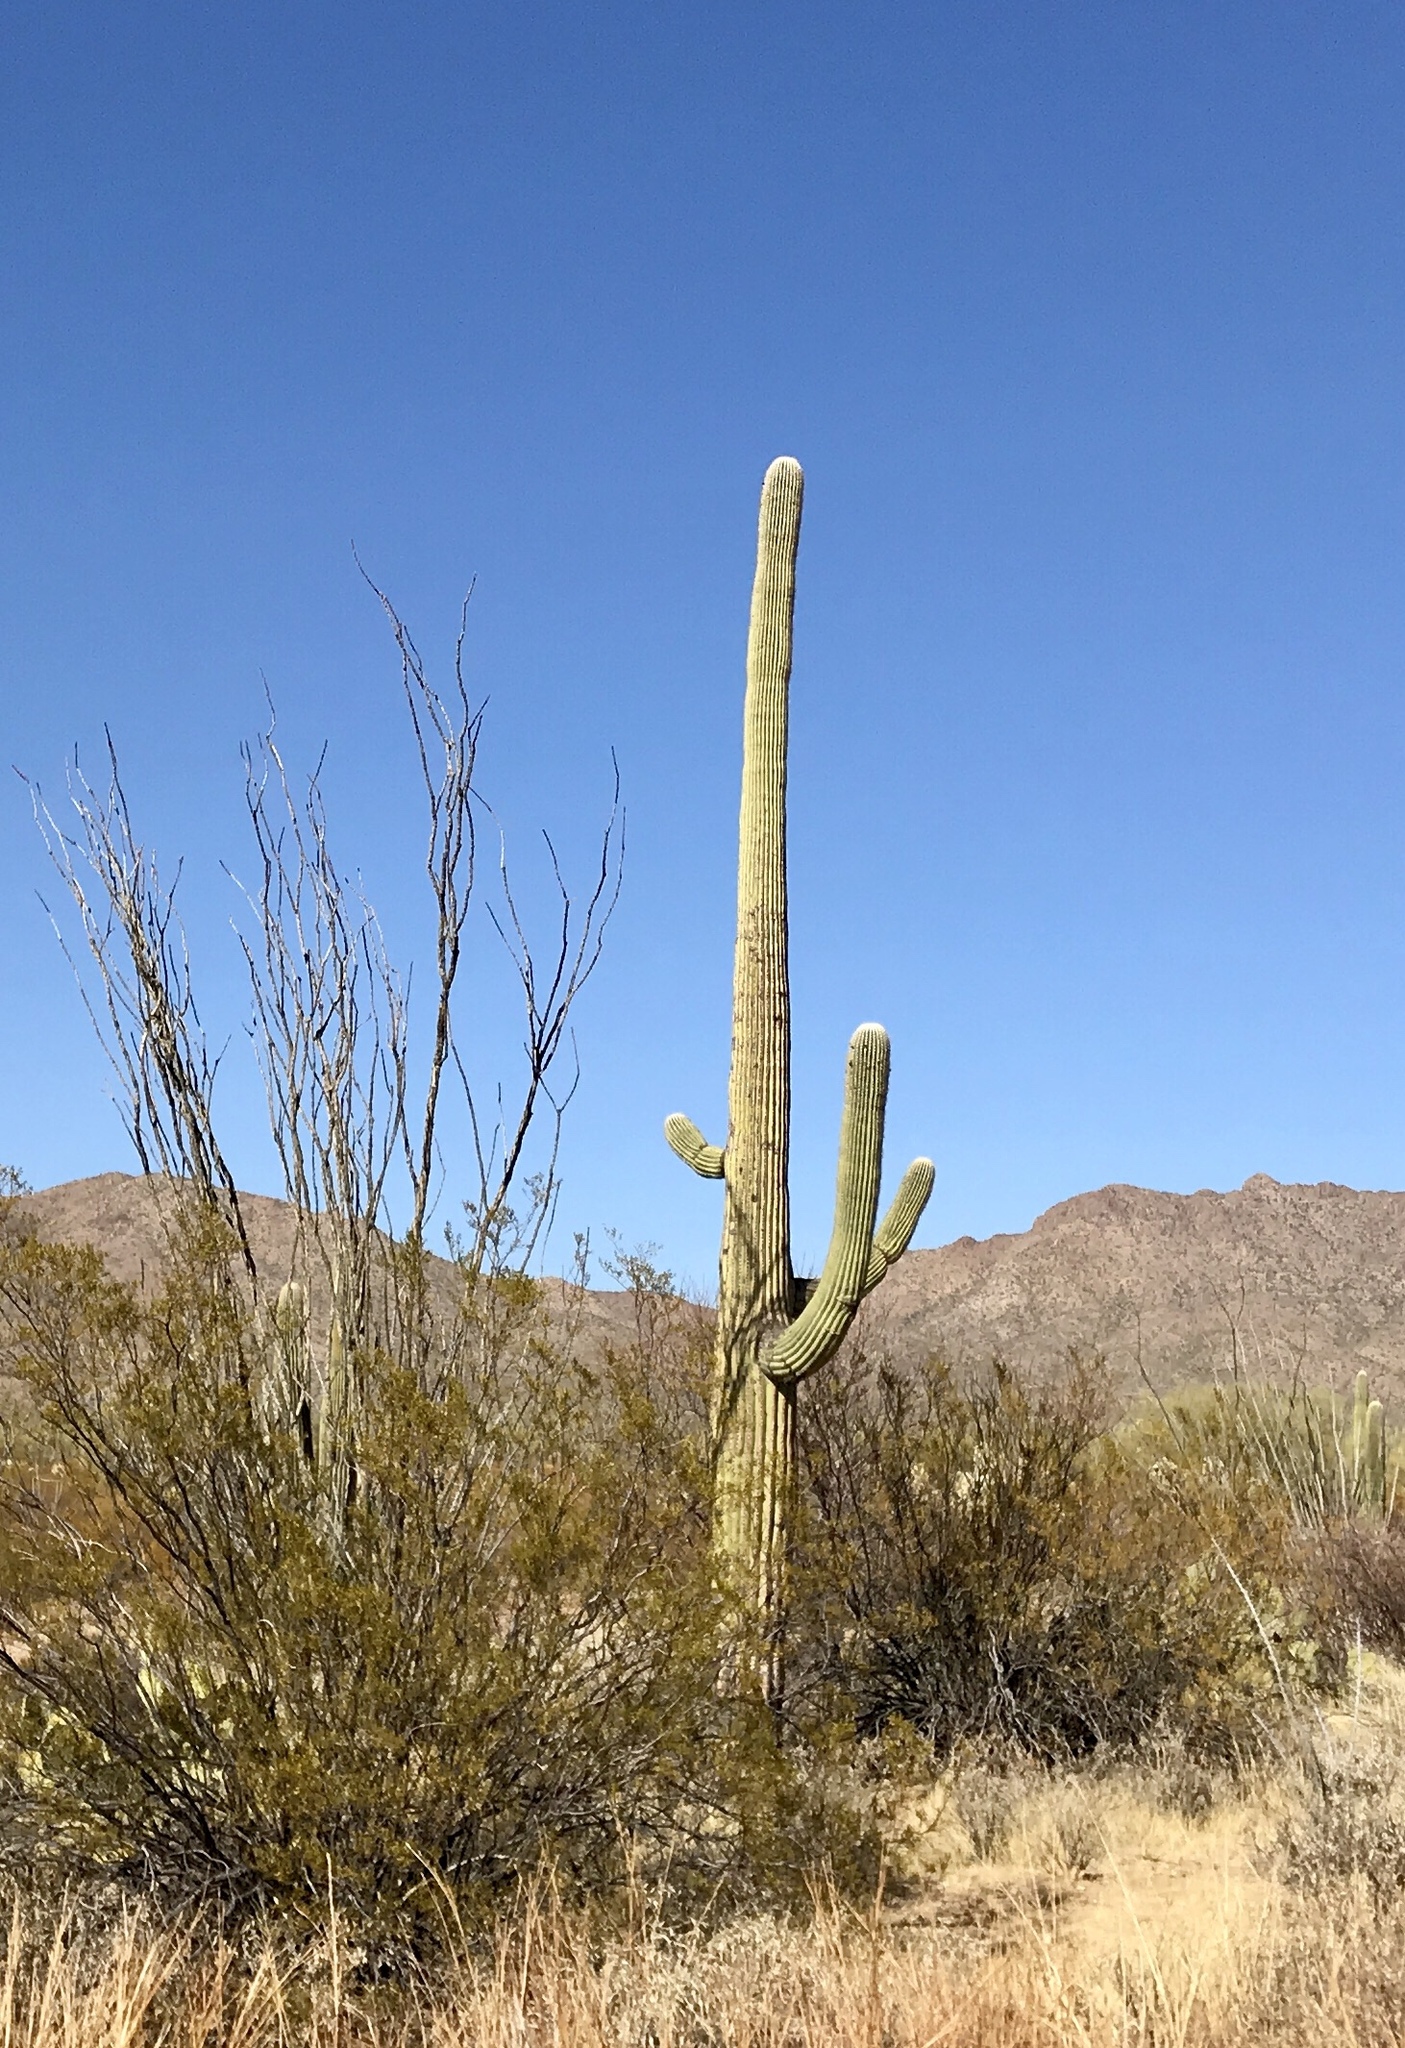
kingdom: Plantae
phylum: Tracheophyta
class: Magnoliopsida
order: Caryophyllales
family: Cactaceae
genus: Carnegiea
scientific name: Carnegiea gigantea
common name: Saguaro
